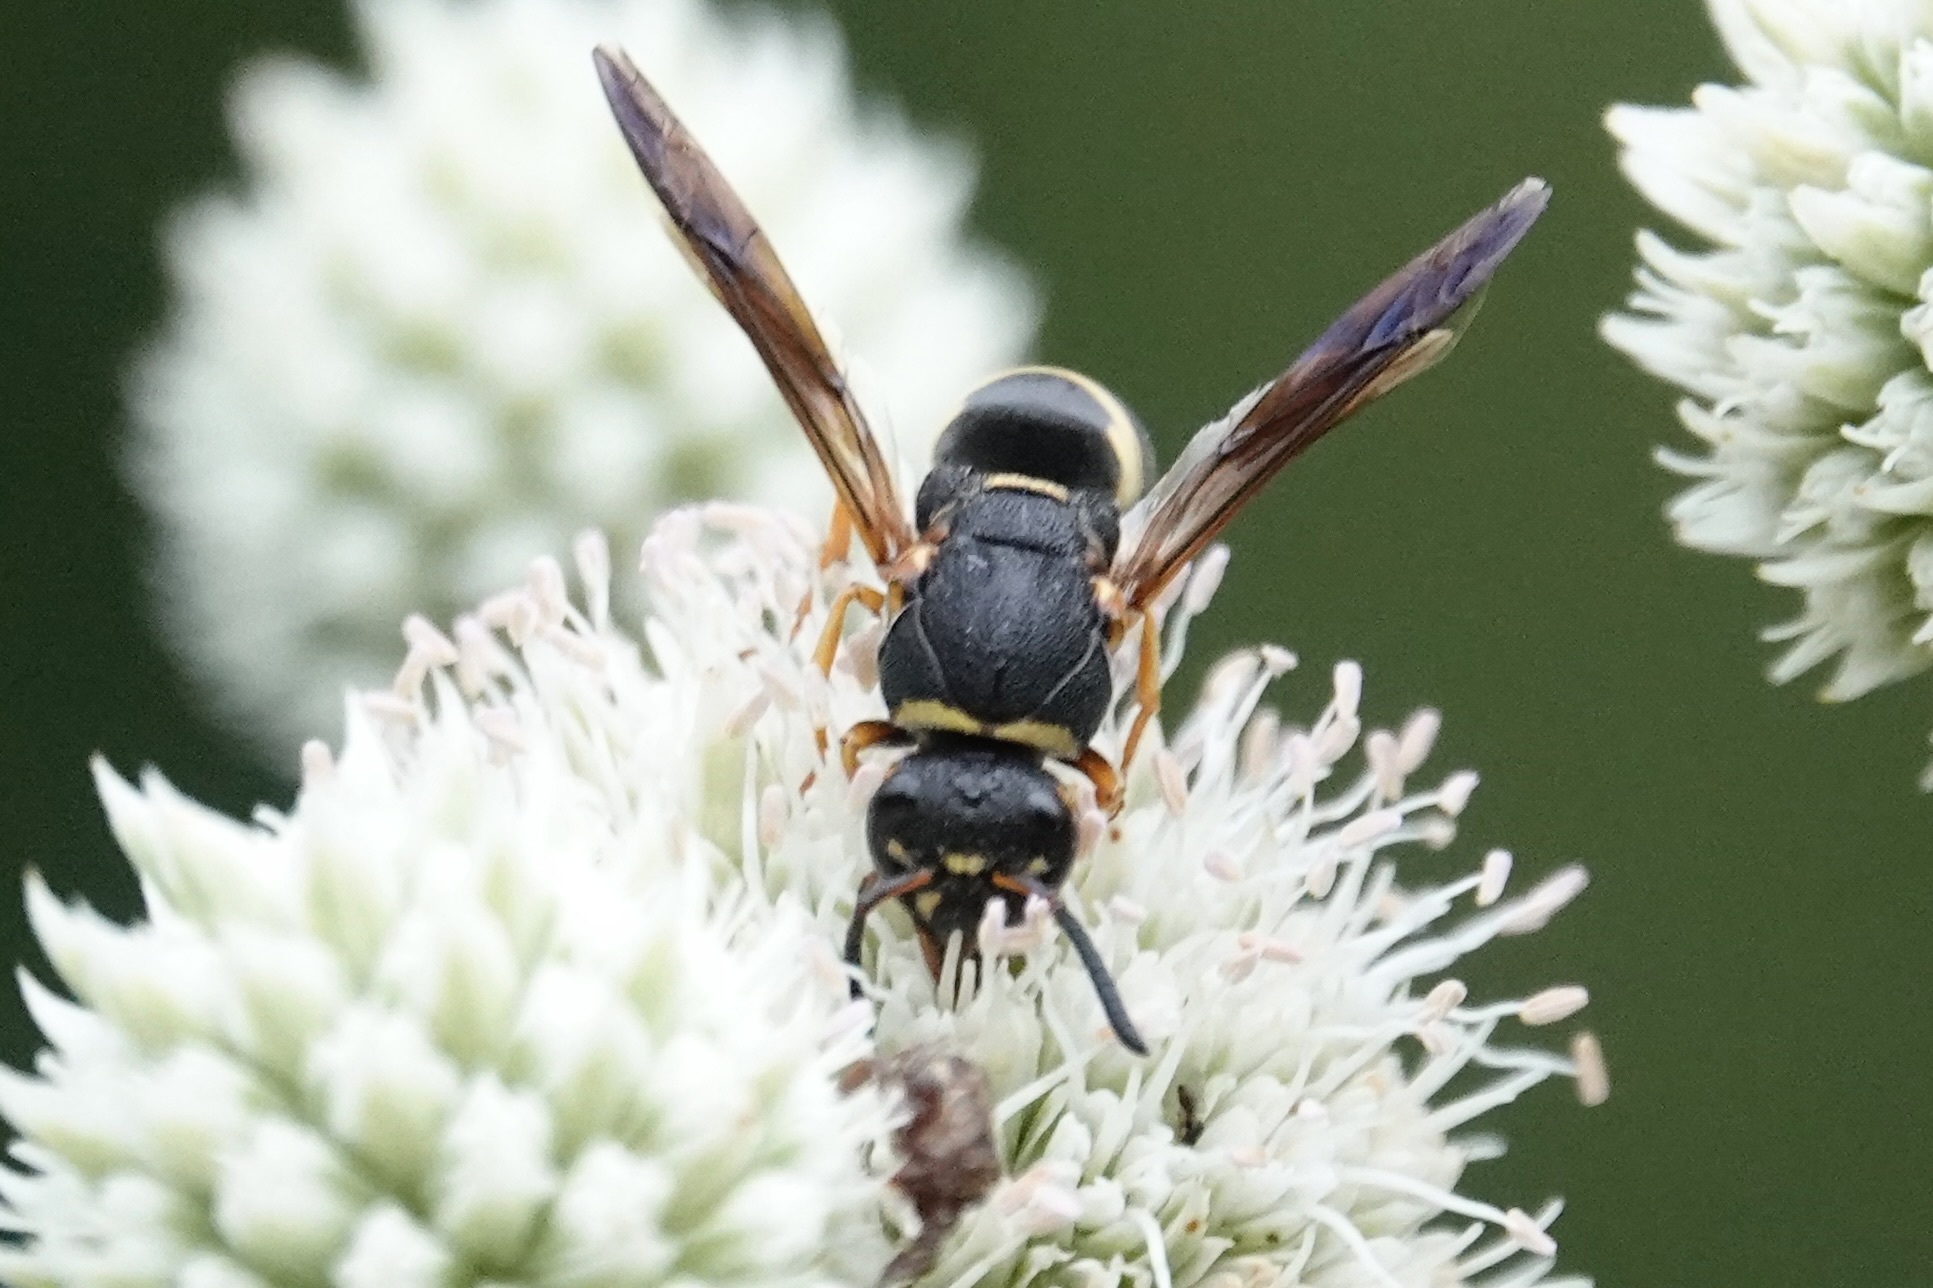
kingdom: Animalia
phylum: Arthropoda
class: Insecta
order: Hymenoptera
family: Eumenidae
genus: Euodynerus
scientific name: Euodynerus hidalgo
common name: Wasp
